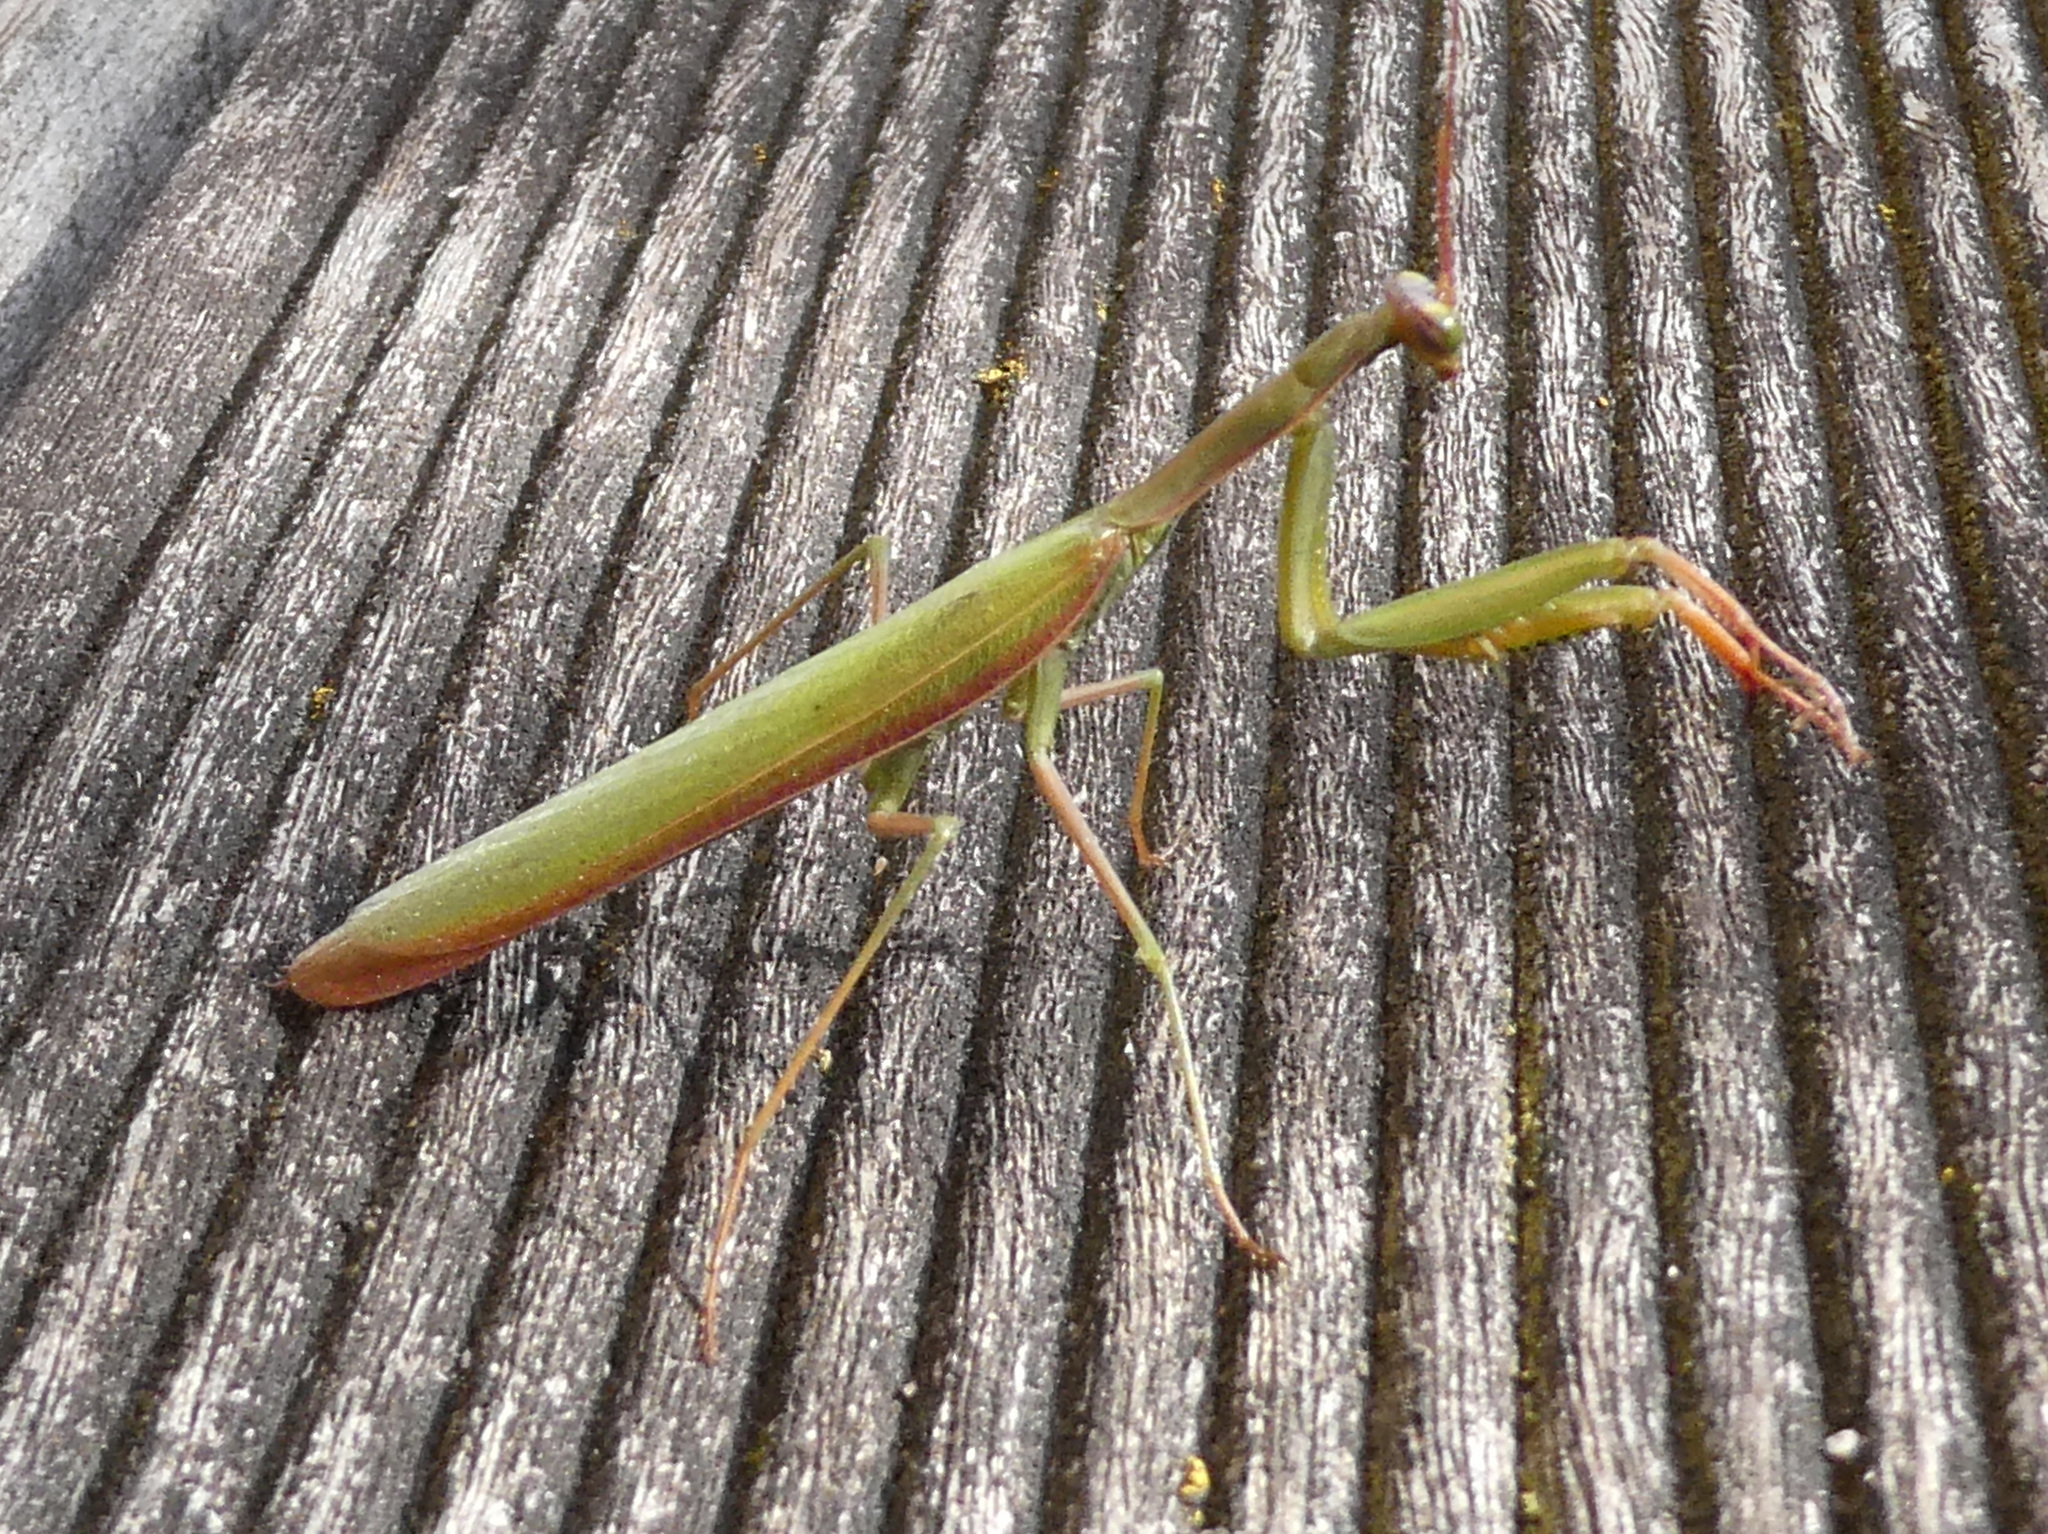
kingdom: Animalia
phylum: Arthropoda
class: Insecta
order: Mantodea
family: Mantidae
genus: Mantis
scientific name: Mantis religiosa
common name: Praying mantis
